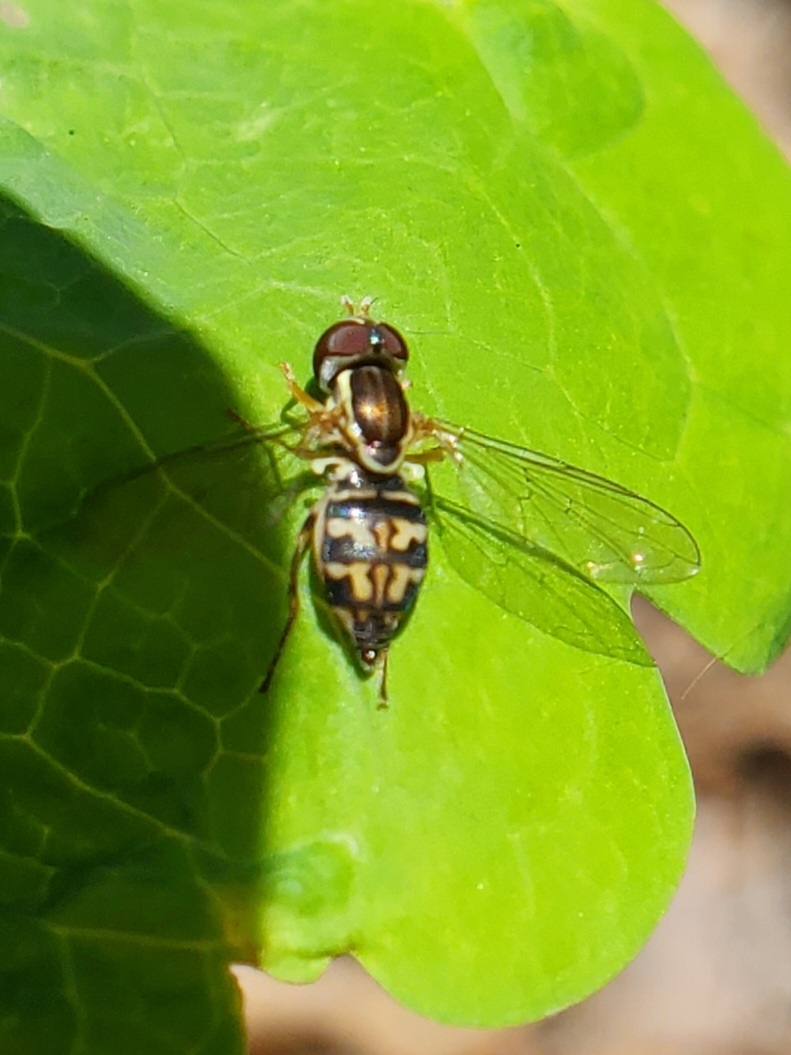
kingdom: Animalia
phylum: Arthropoda
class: Insecta
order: Diptera
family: Syrphidae
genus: Toxomerus
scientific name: Toxomerus geminatus
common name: Eastern calligrapher
